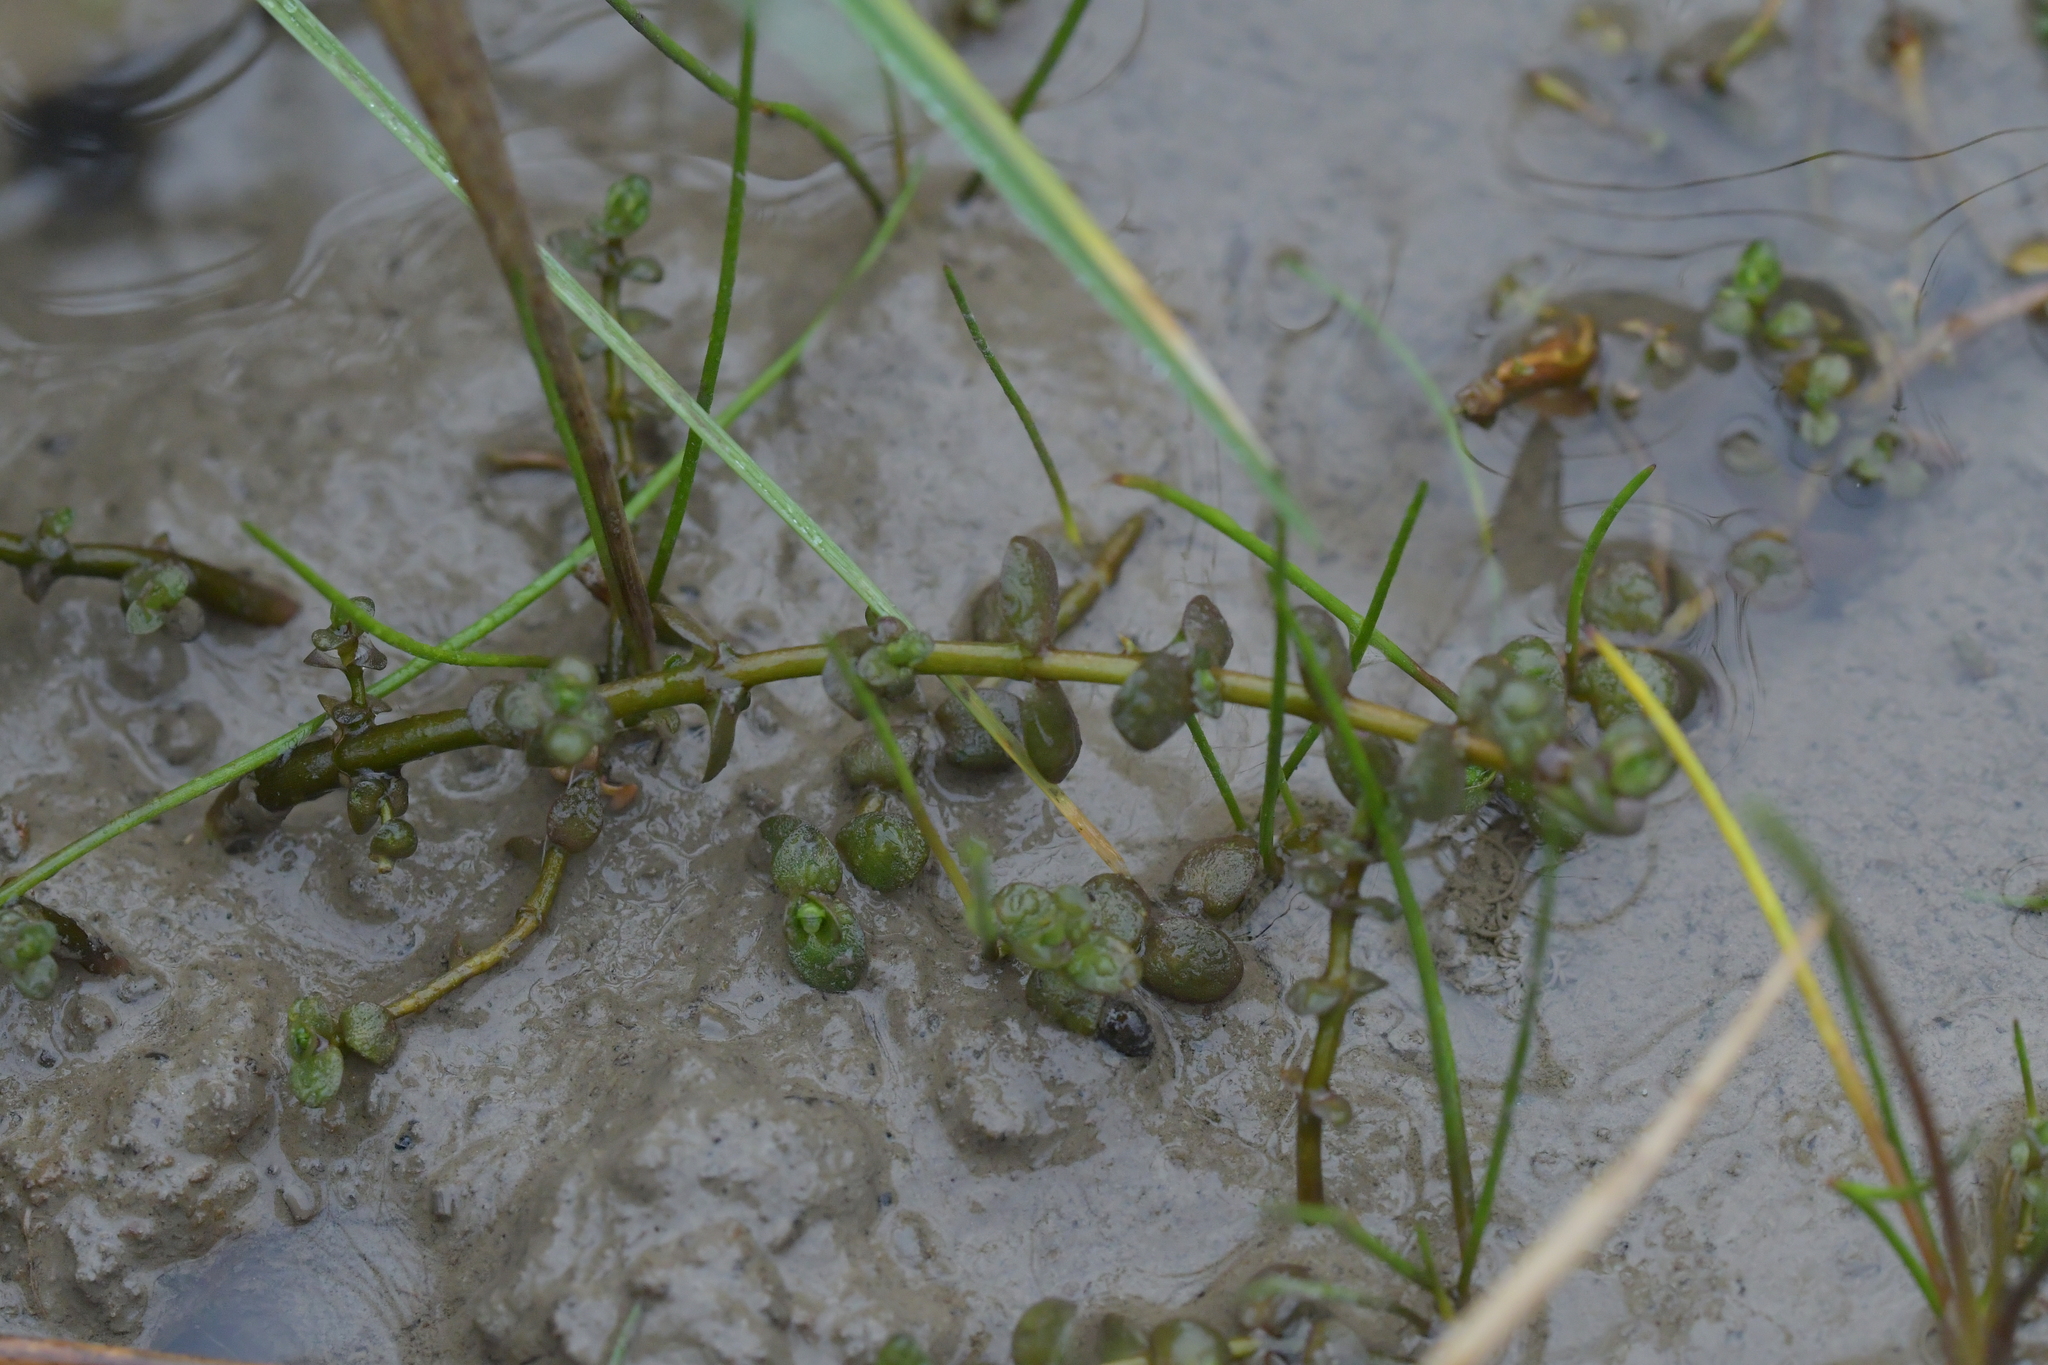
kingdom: Plantae
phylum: Tracheophyta
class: Magnoliopsida
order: Lamiales
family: Phrymaceae
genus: Thyridia
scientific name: Thyridia repens
